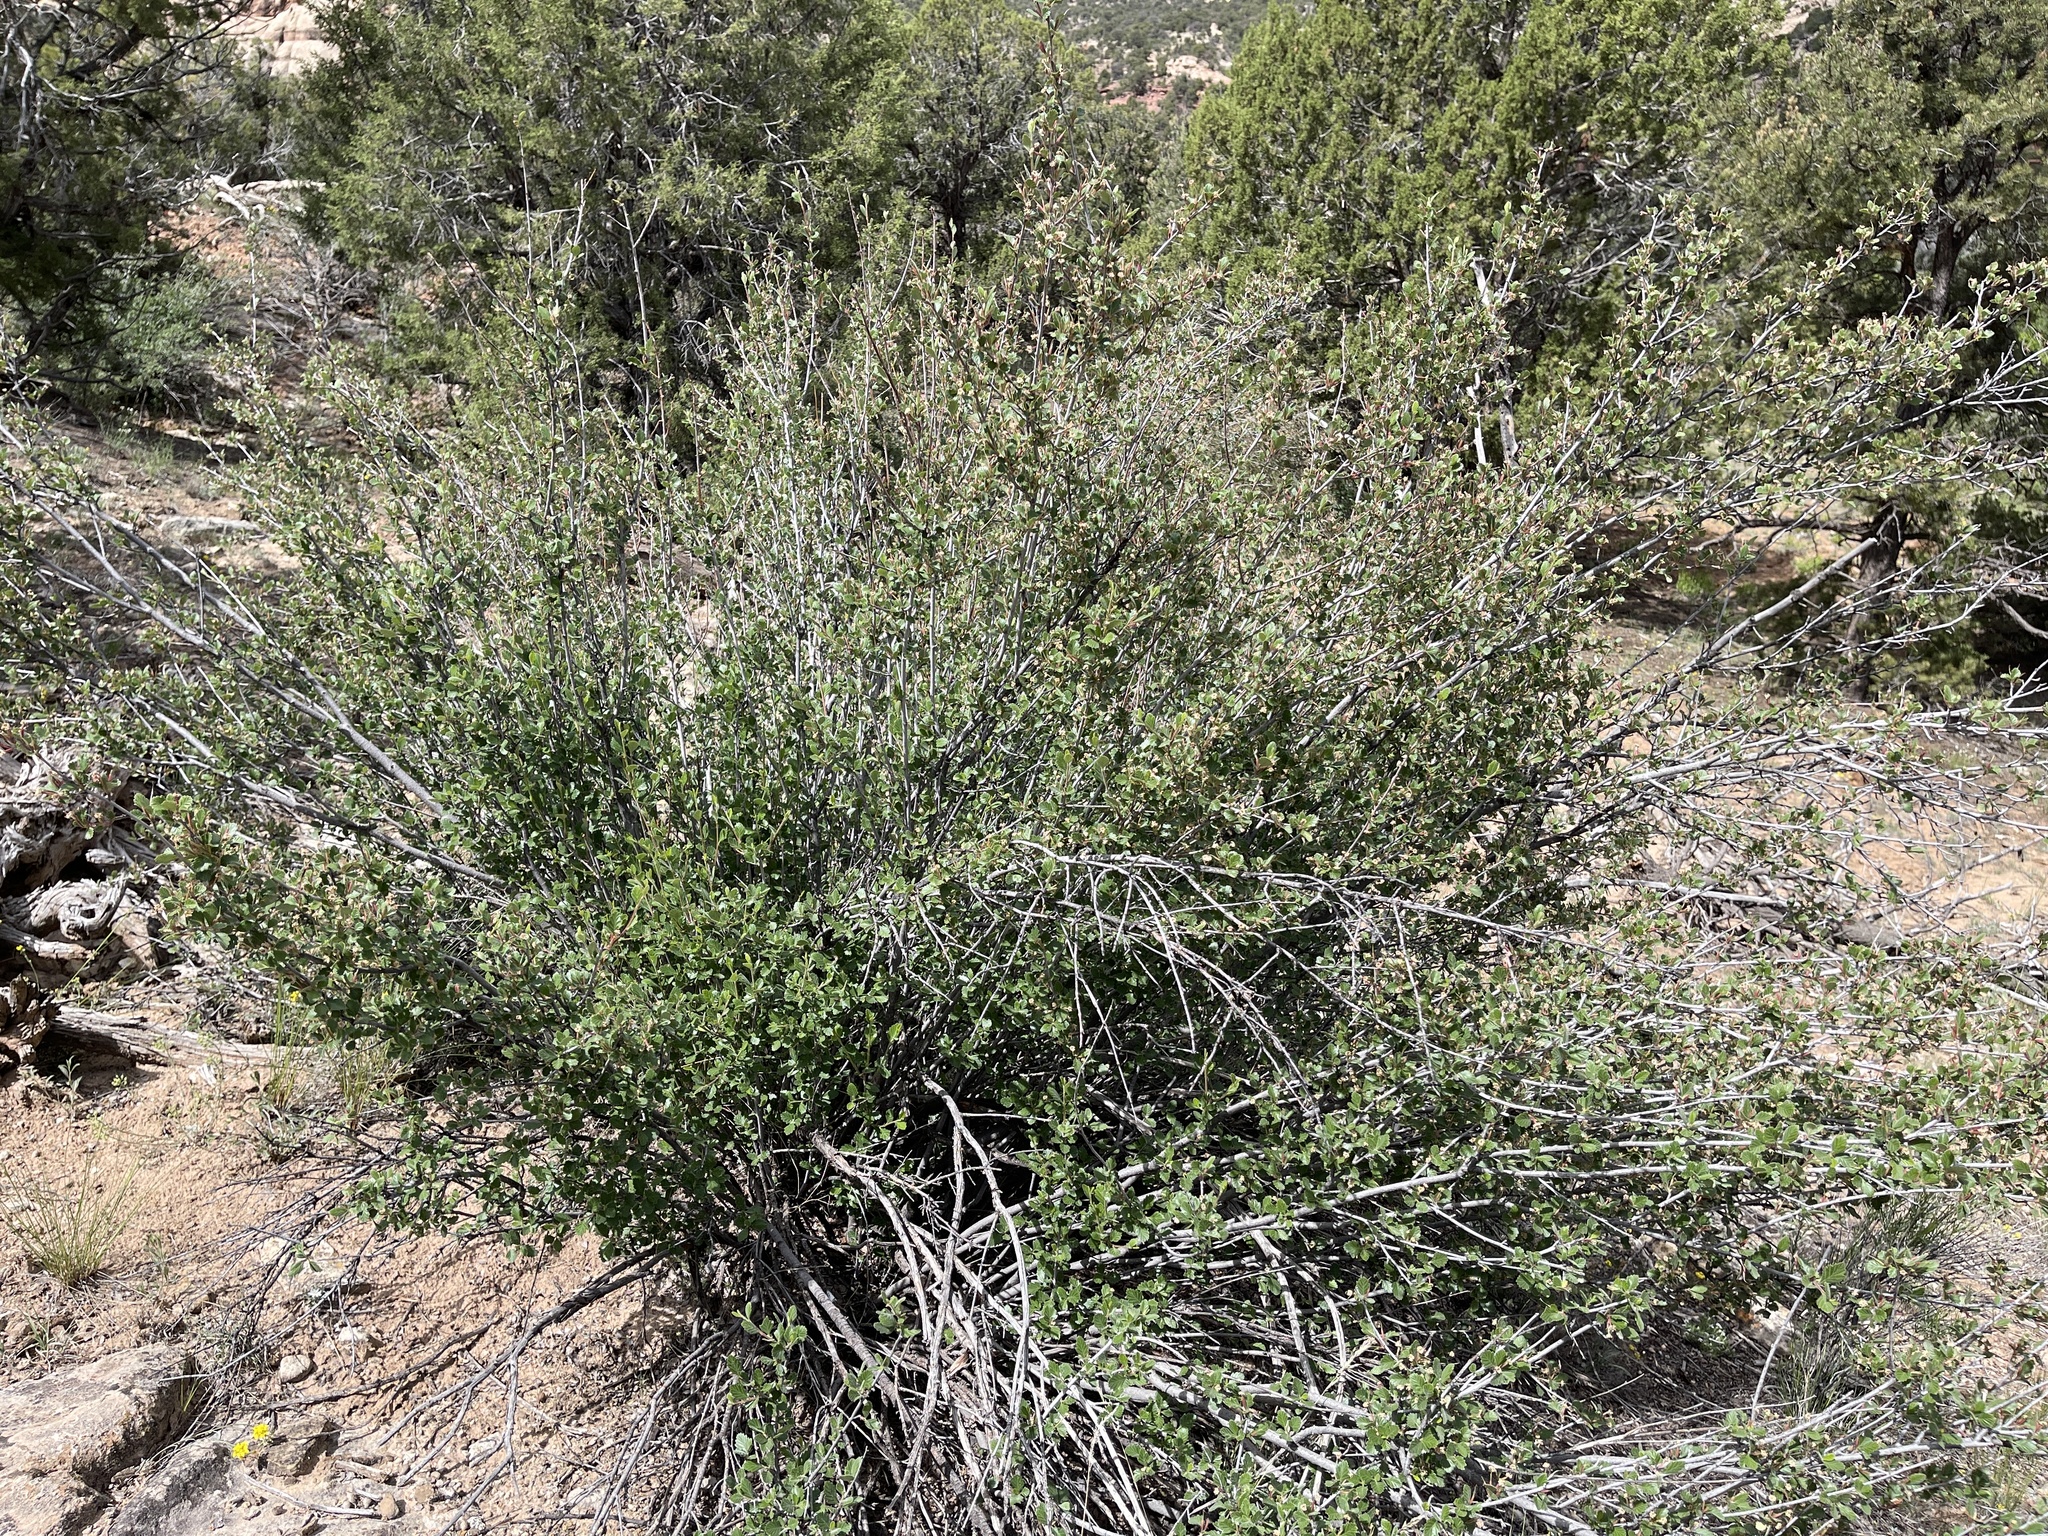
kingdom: Plantae
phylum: Tracheophyta
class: Magnoliopsida
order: Rosales
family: Rosaceae
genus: Cercocarpus
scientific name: Cercocarpus montanus
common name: Alder-leaf cercocarpus
